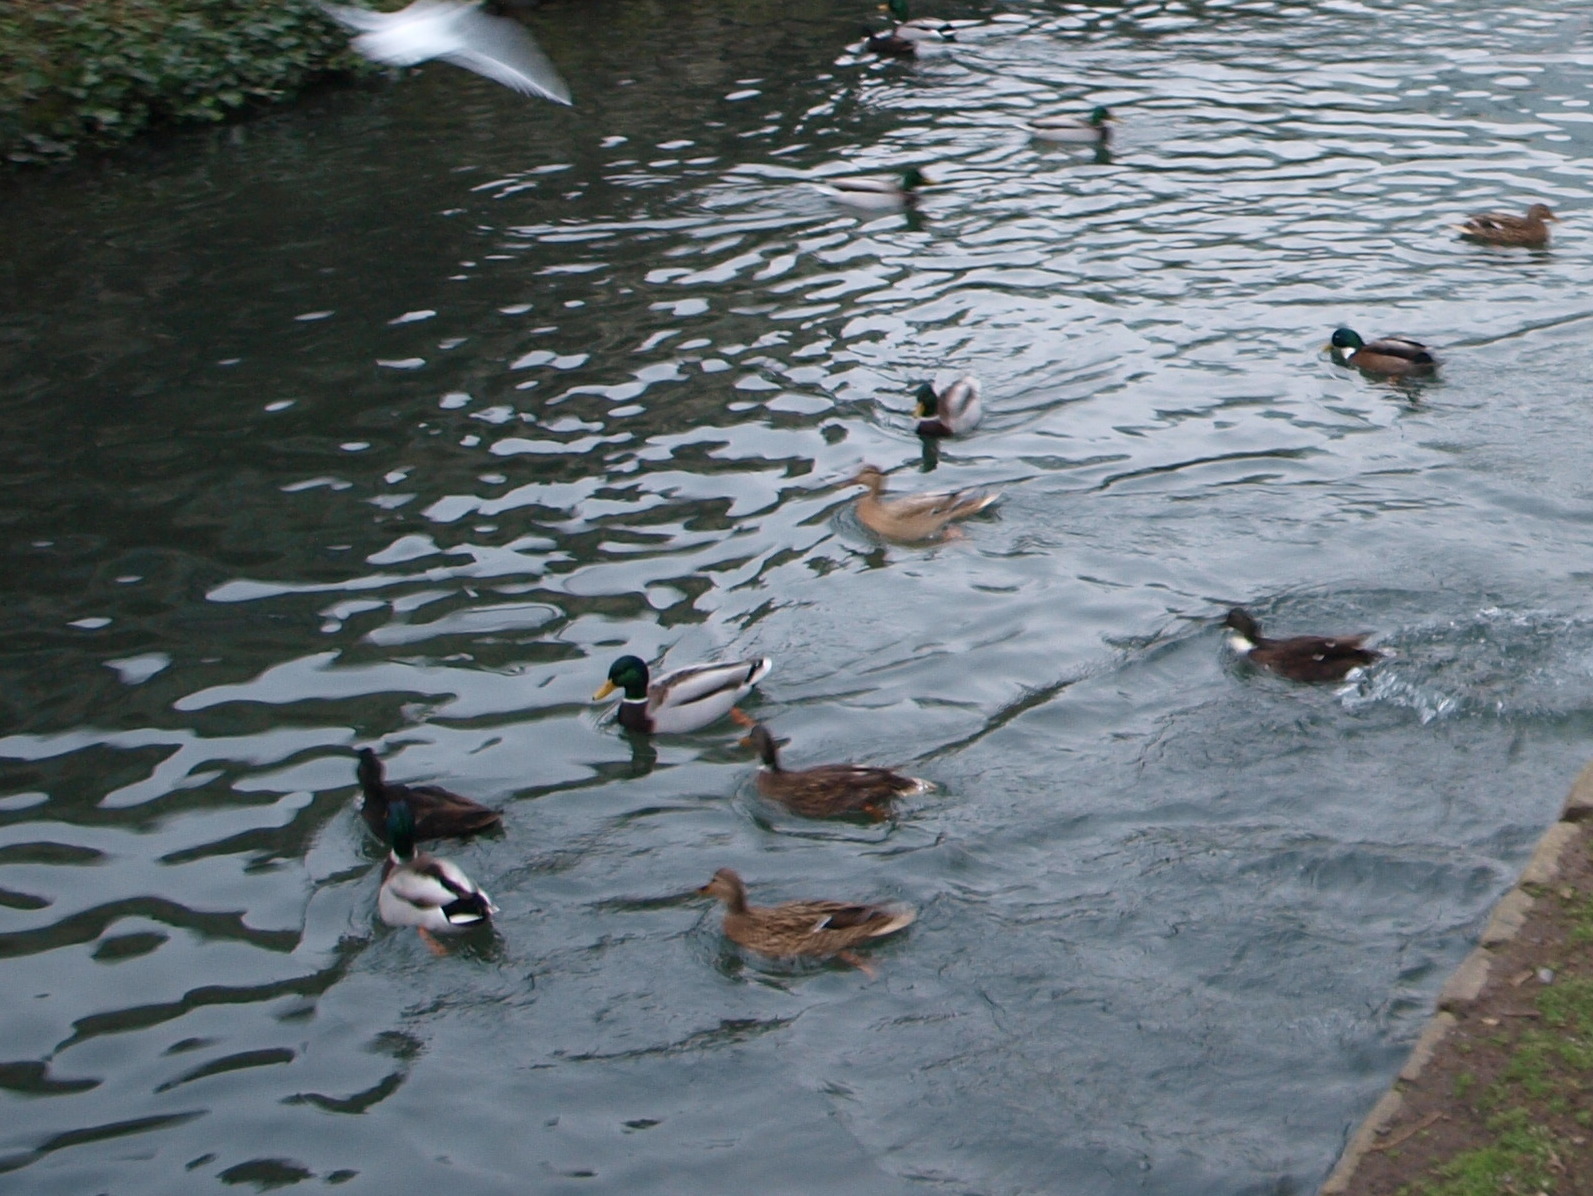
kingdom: Animalia
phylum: Chordata
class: Aves
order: Anseriformes
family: Anatidae
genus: Anas
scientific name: Anas platyrhynchos
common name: Mallard
